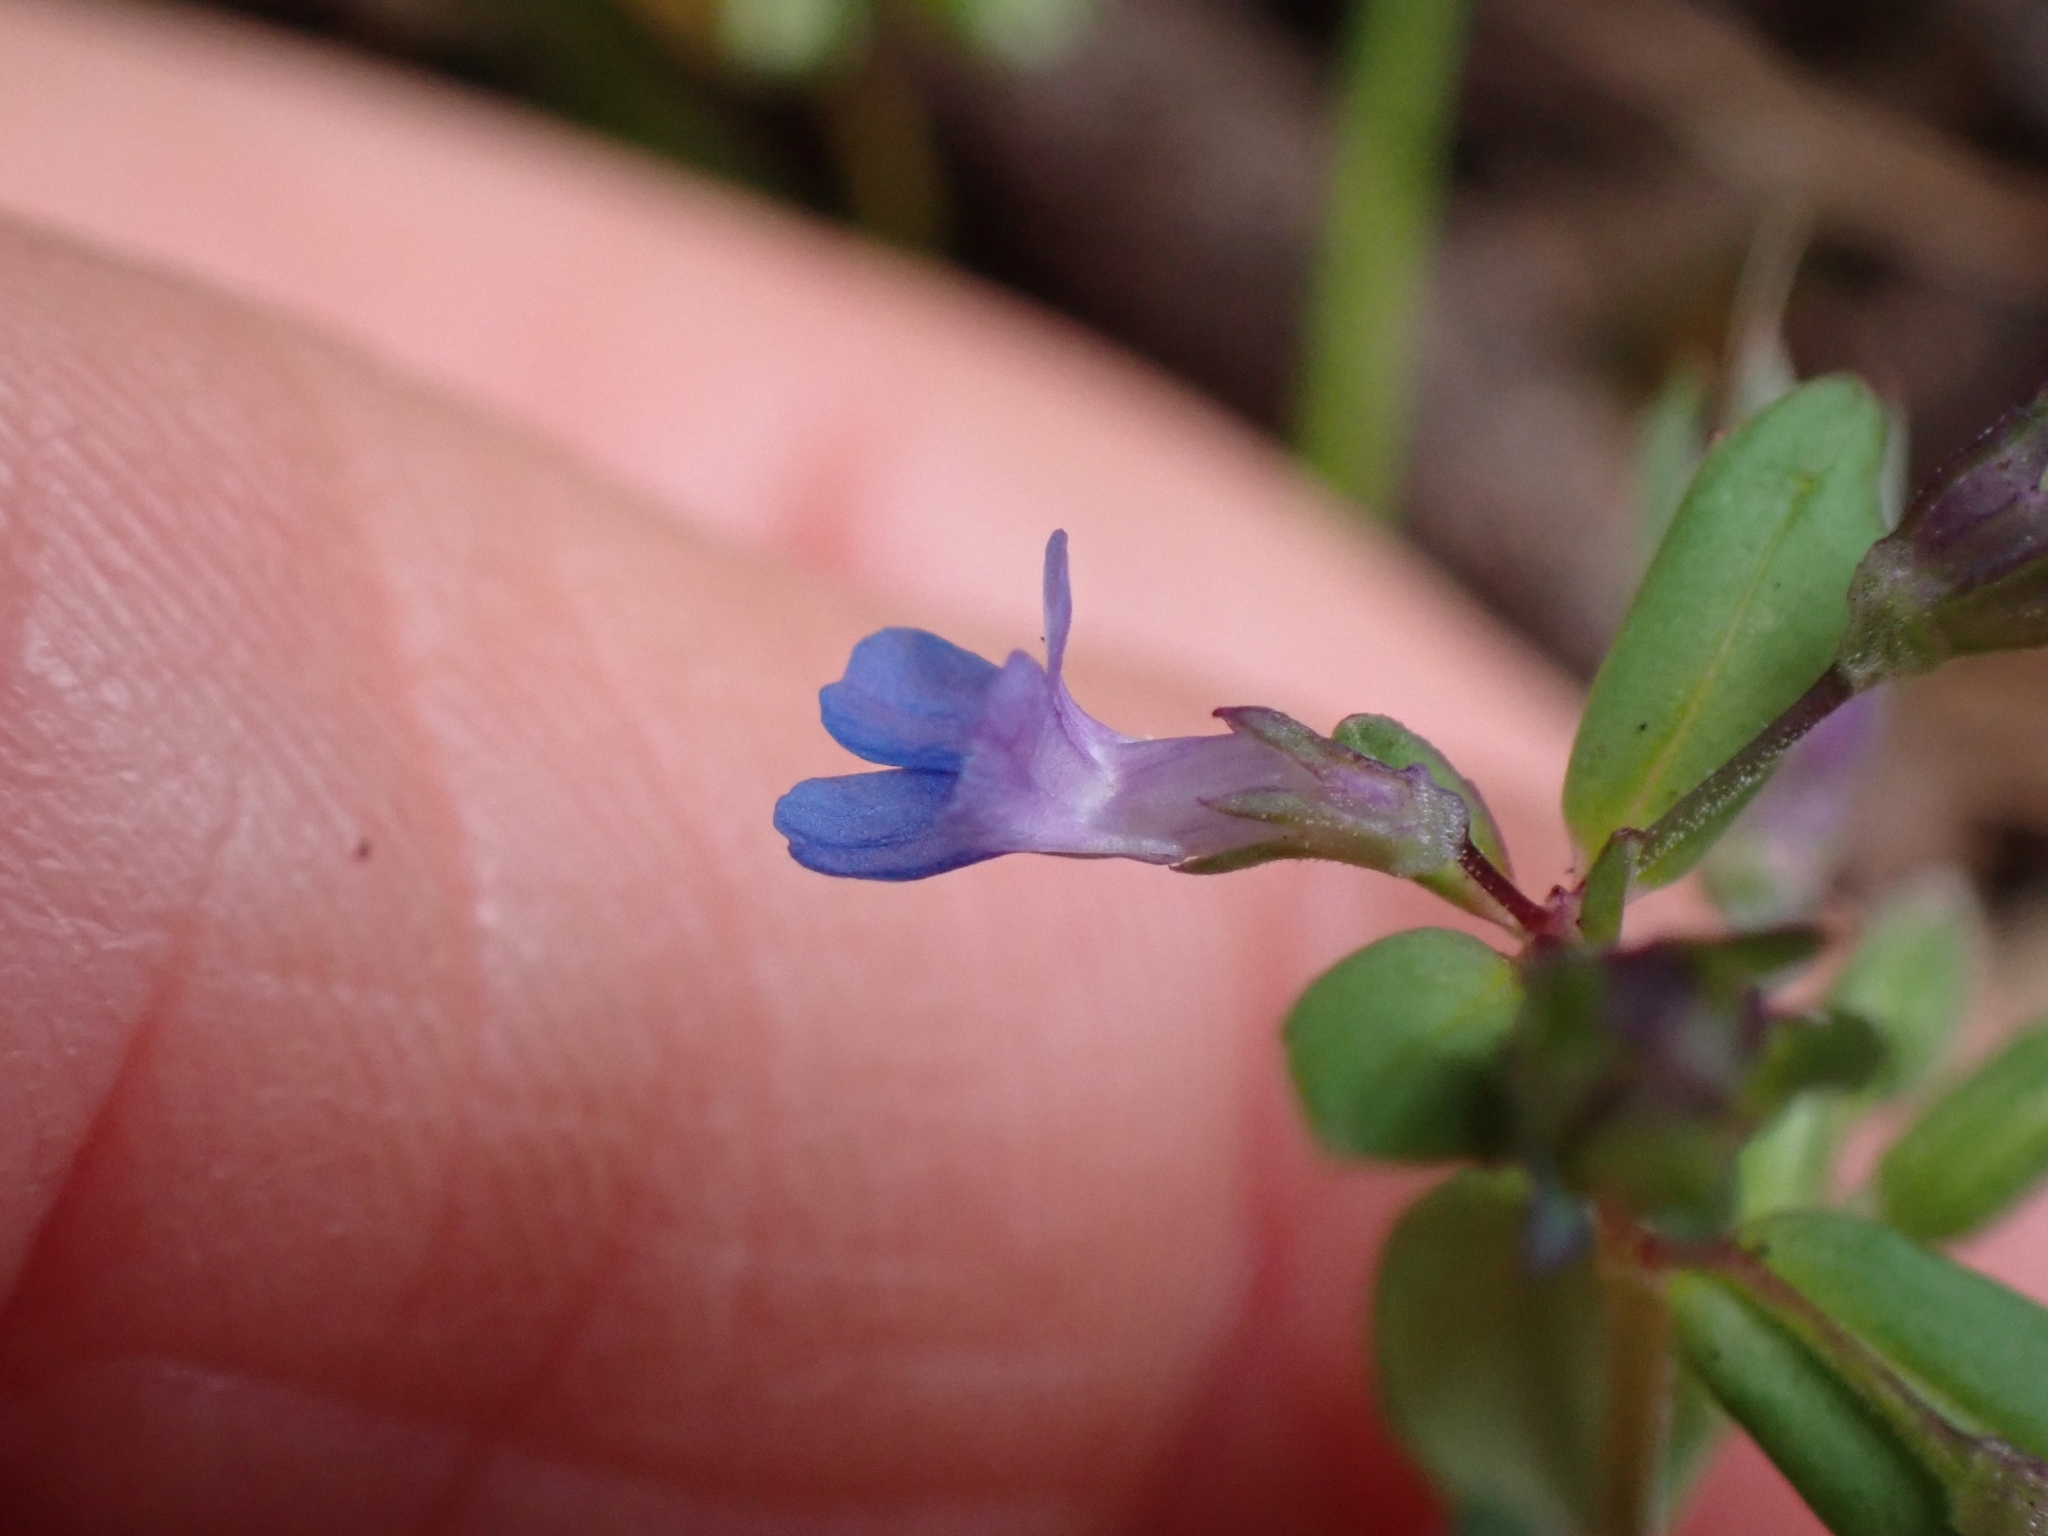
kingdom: Plantae
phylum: Tracheophyta
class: Magnoliopsida
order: Lamiales
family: Plantaginaceae
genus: Collinsia
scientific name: Collinsia parviflora
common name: Blue-lips
